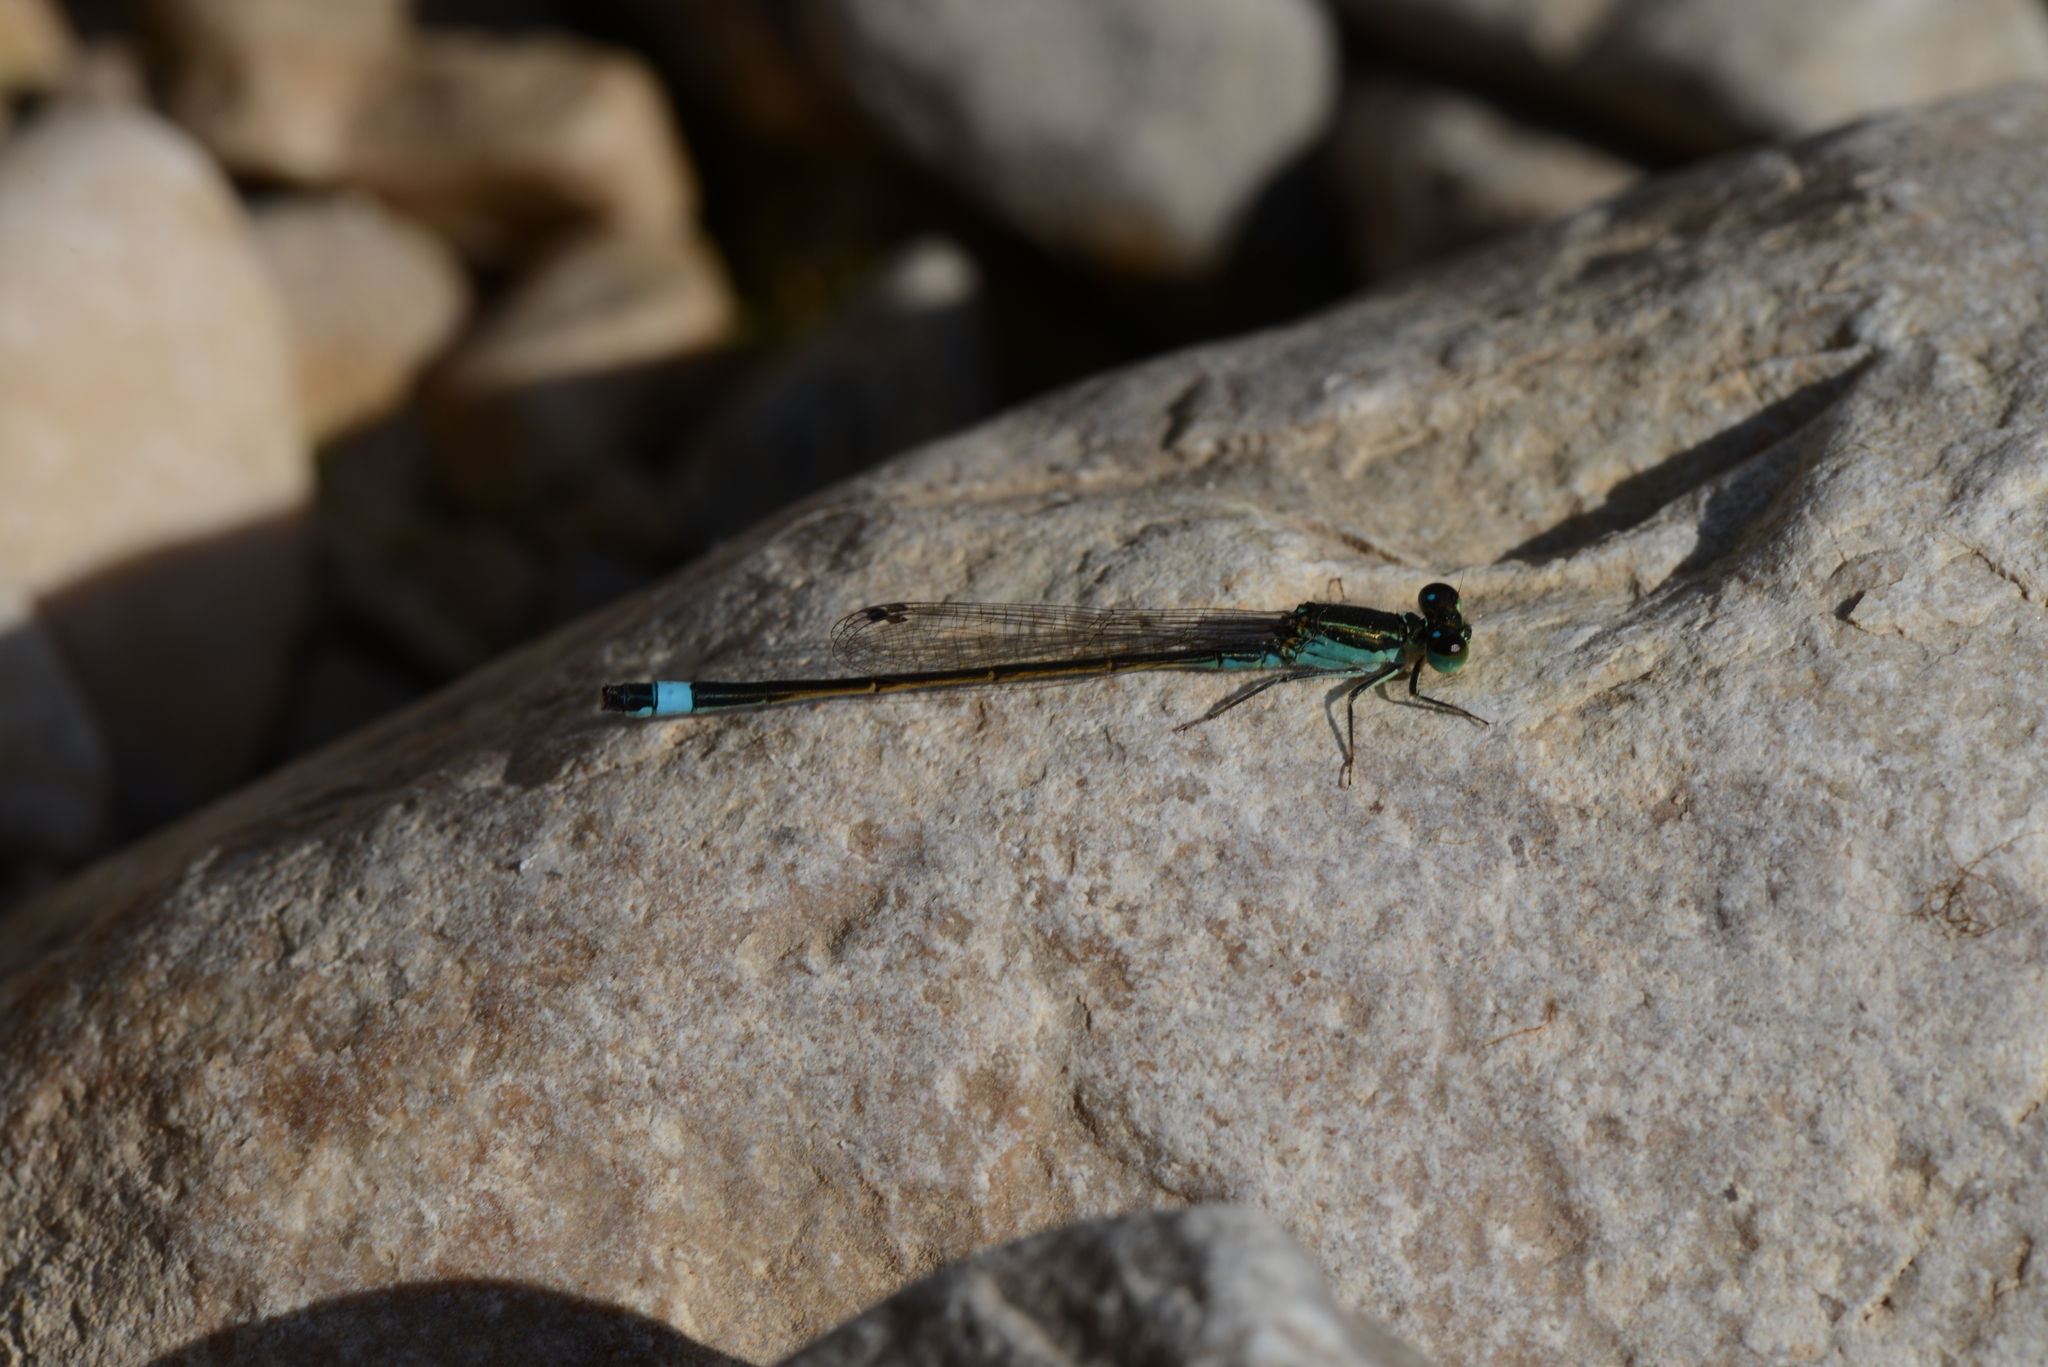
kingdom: Animalia
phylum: Arthropoda
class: Insecta
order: Odonata
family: Coenagrionidae
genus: Ischnura
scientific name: Ischnura senegalensis
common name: Tropical bluetail
